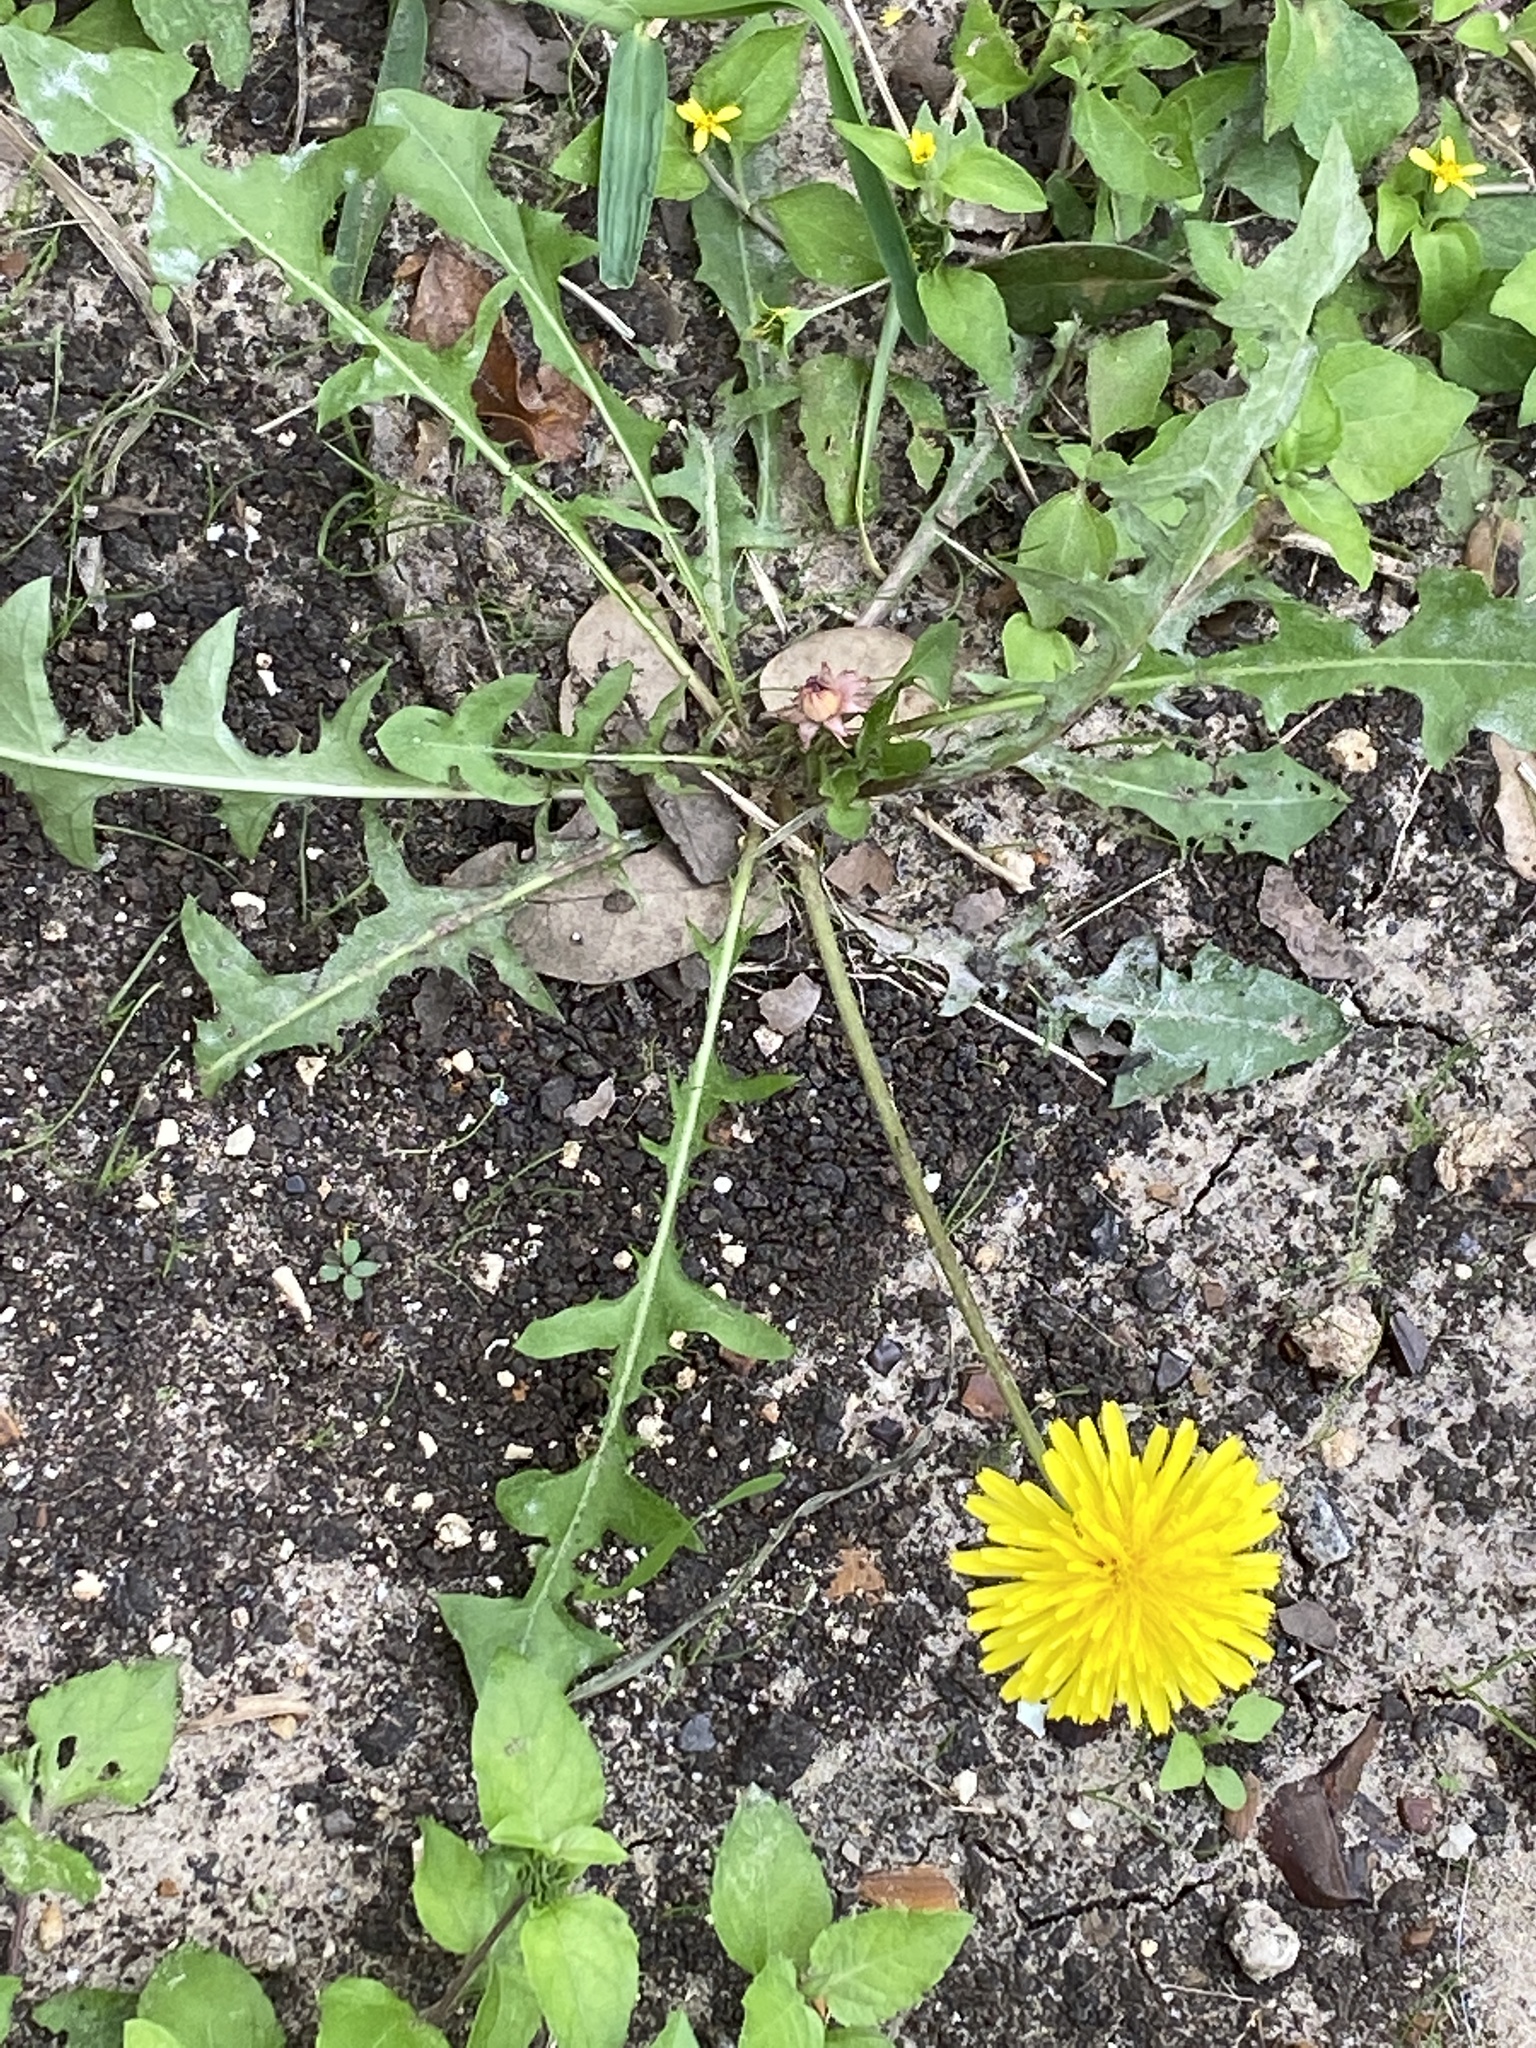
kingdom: Plantae
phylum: Tracheophyta
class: Magnoliopsida
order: Asterales
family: Asteraceae
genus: Taraxacum
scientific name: Taraxacum officinale
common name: Common dandelion
